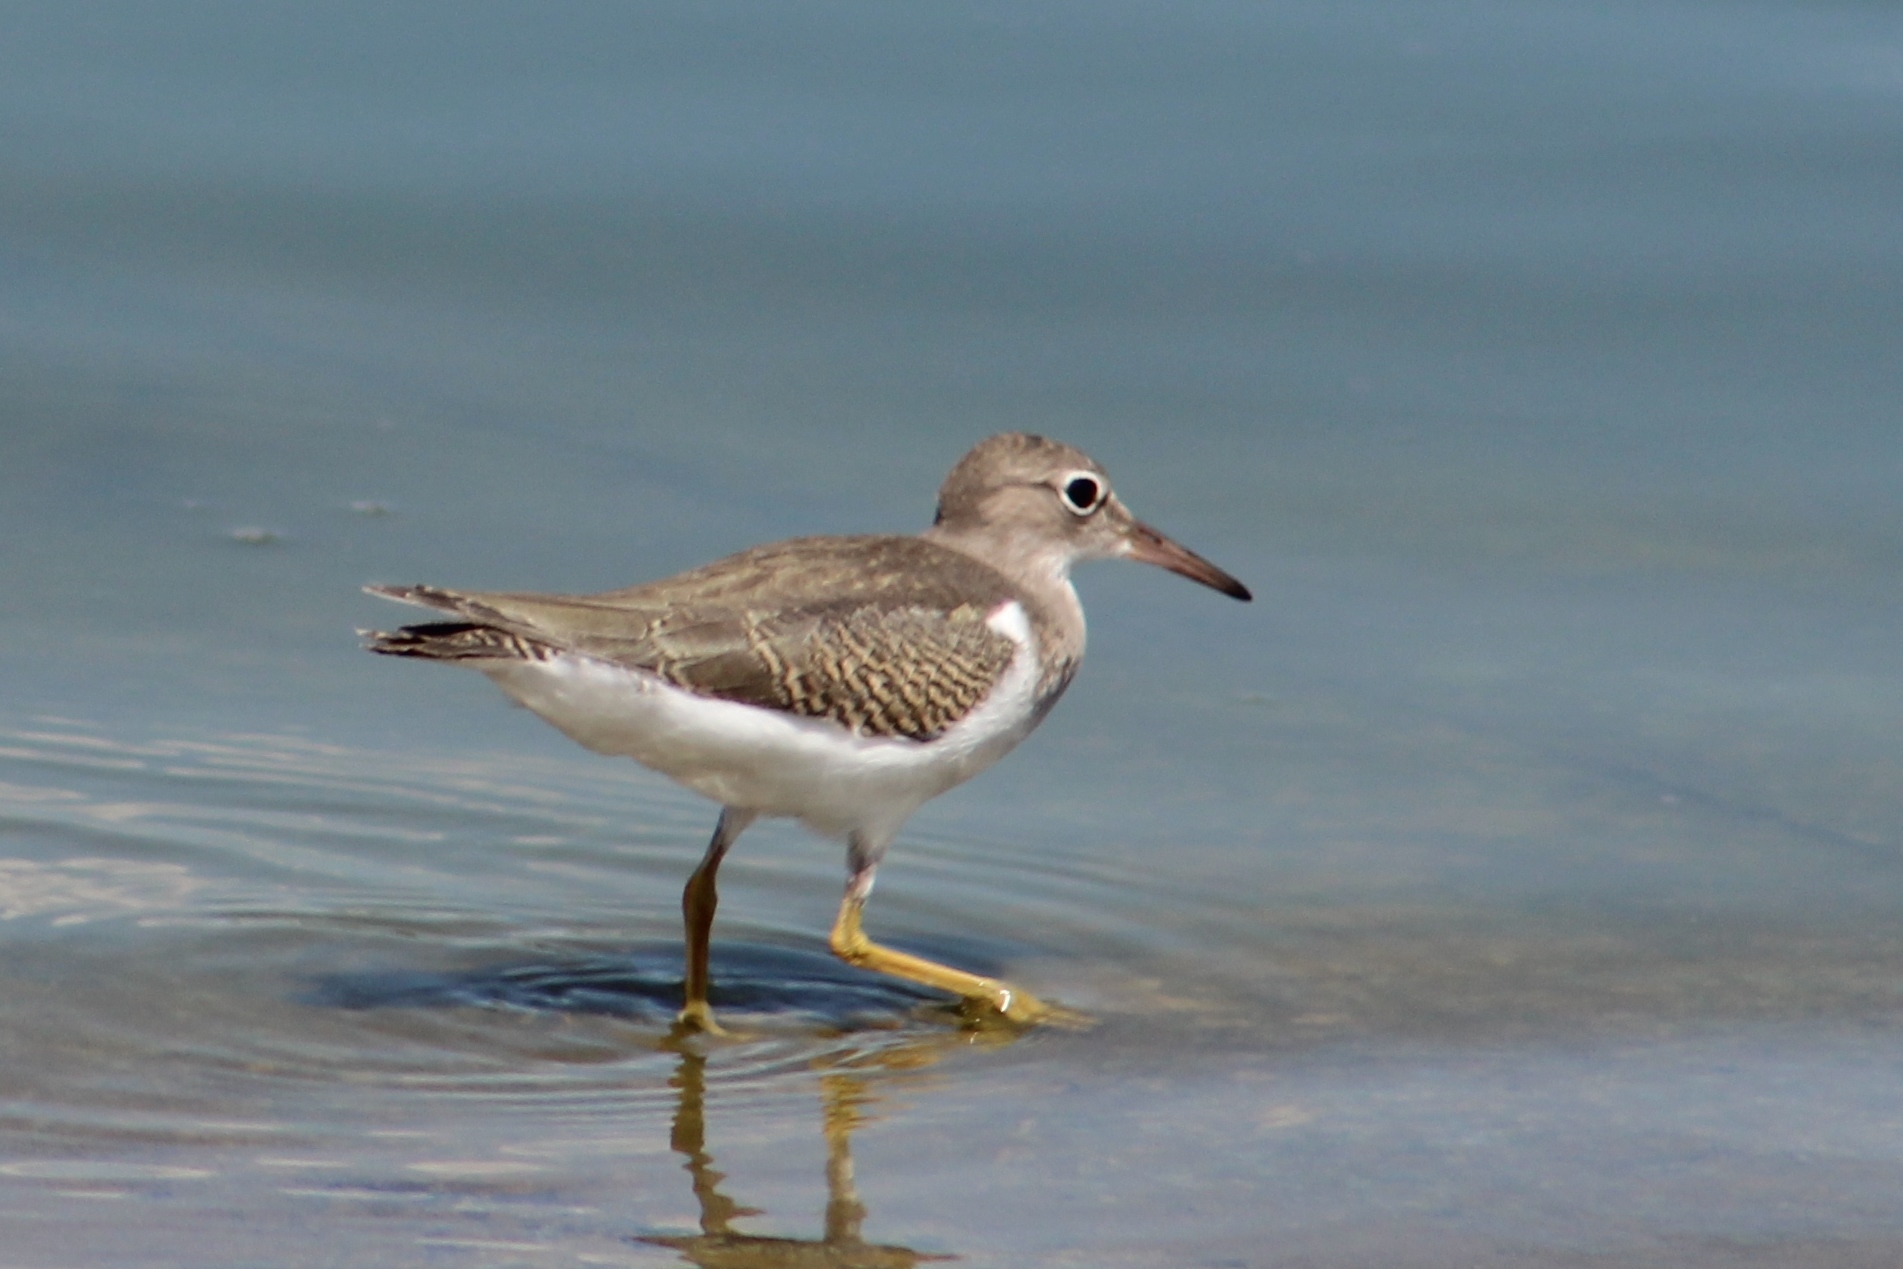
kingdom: Animalia
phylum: Chordata
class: Aves
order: Charadriiformes
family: Scolopacidae
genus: Actitis
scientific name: Actitis macularius
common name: Spotted sandpiper
